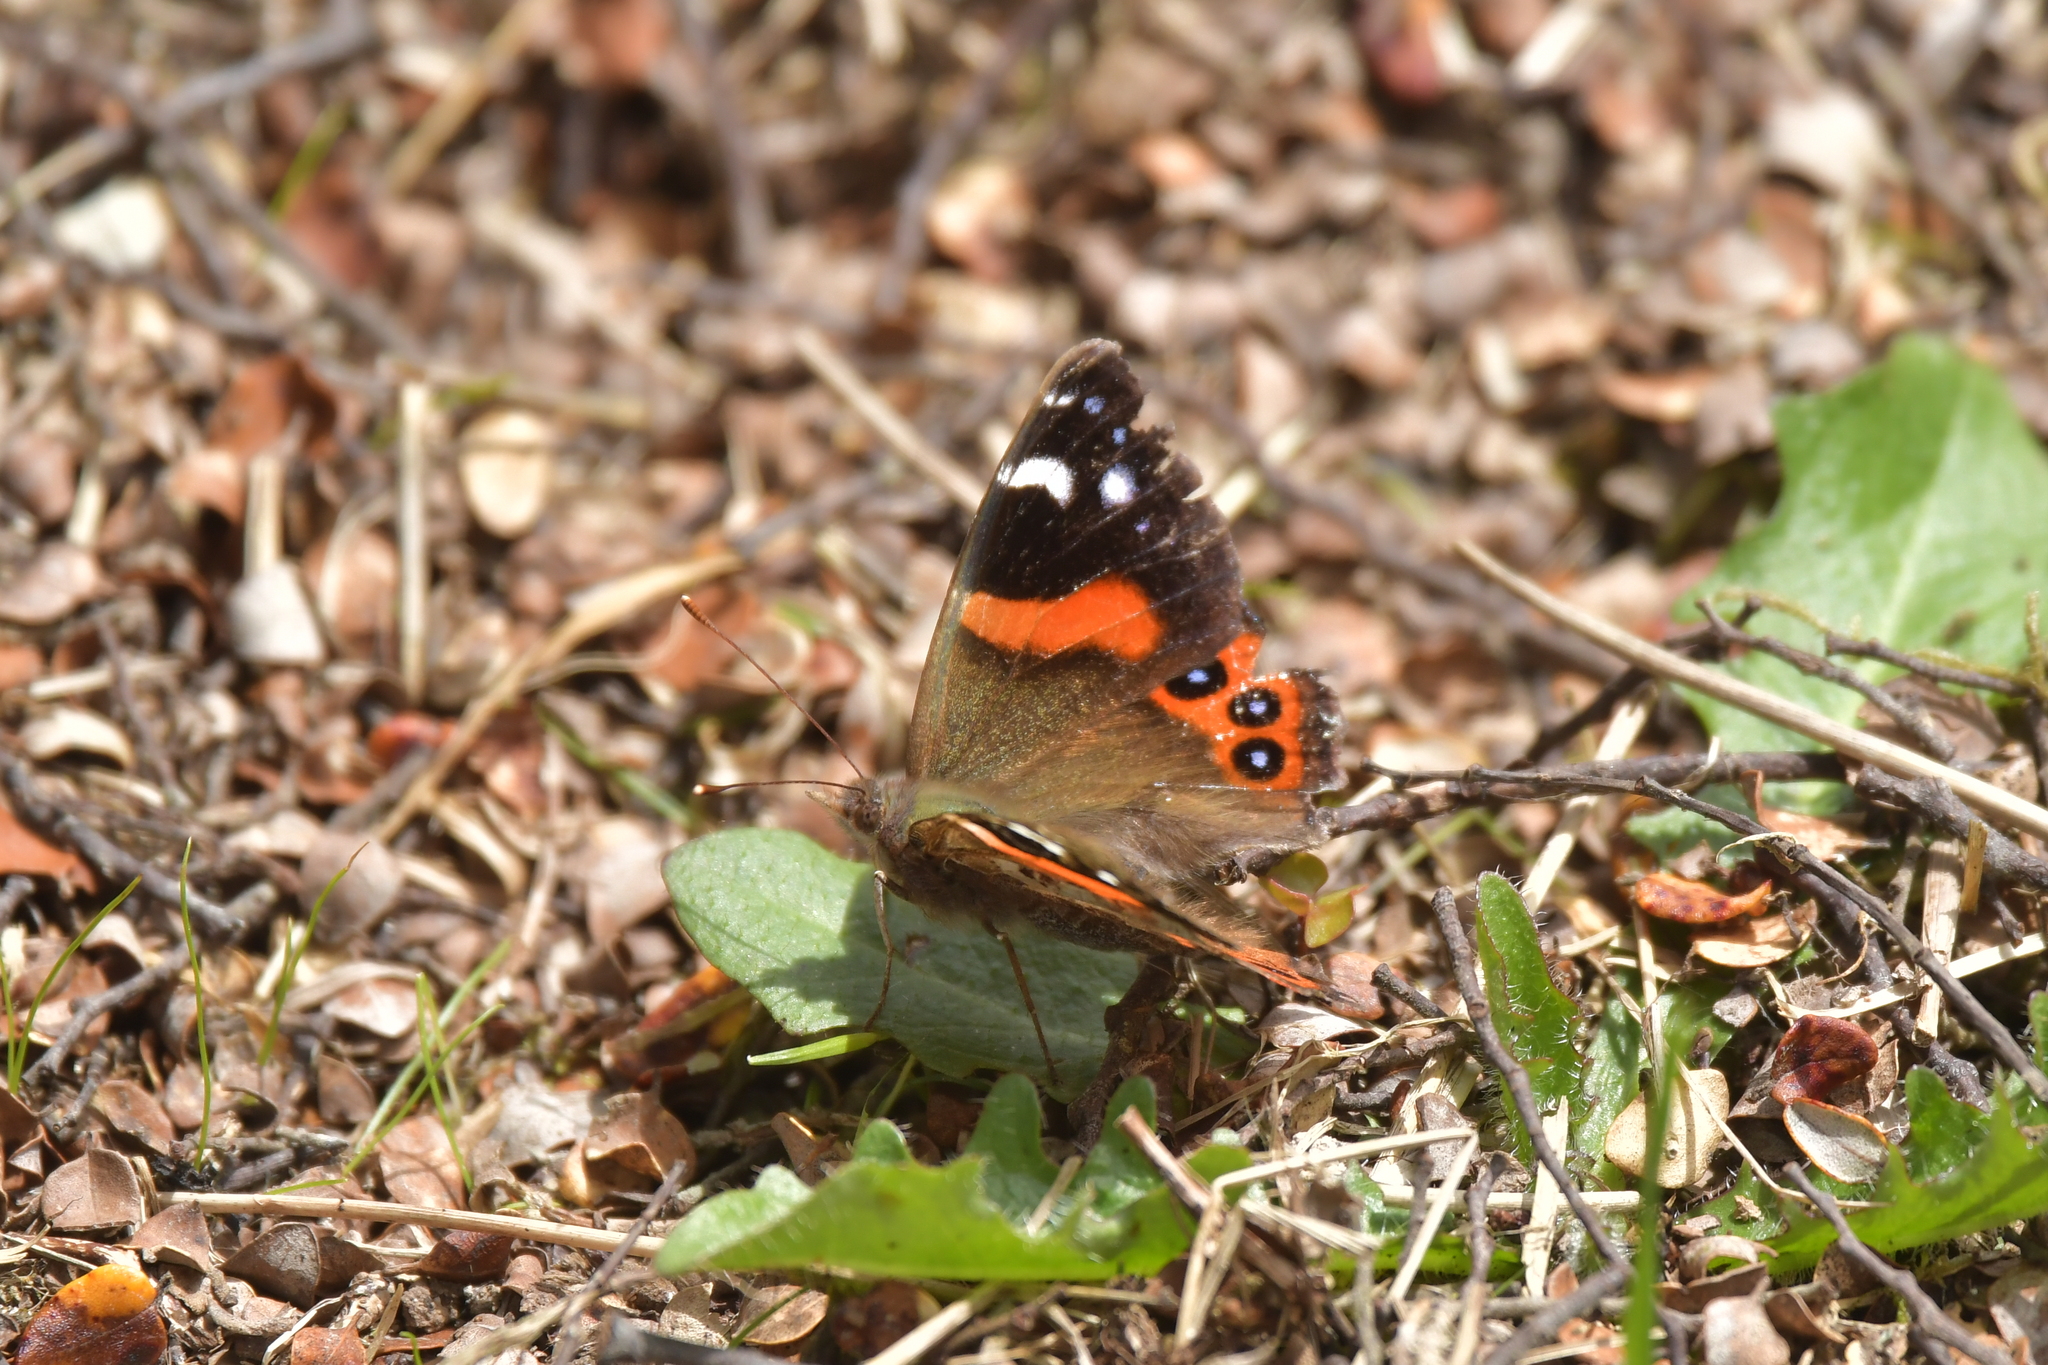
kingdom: Animalia
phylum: Arthropoda
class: Insecta
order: Lepidoptera
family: Nymphalidae
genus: Vanessa
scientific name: Vanessa gonerilla
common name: New zealand red admiral
